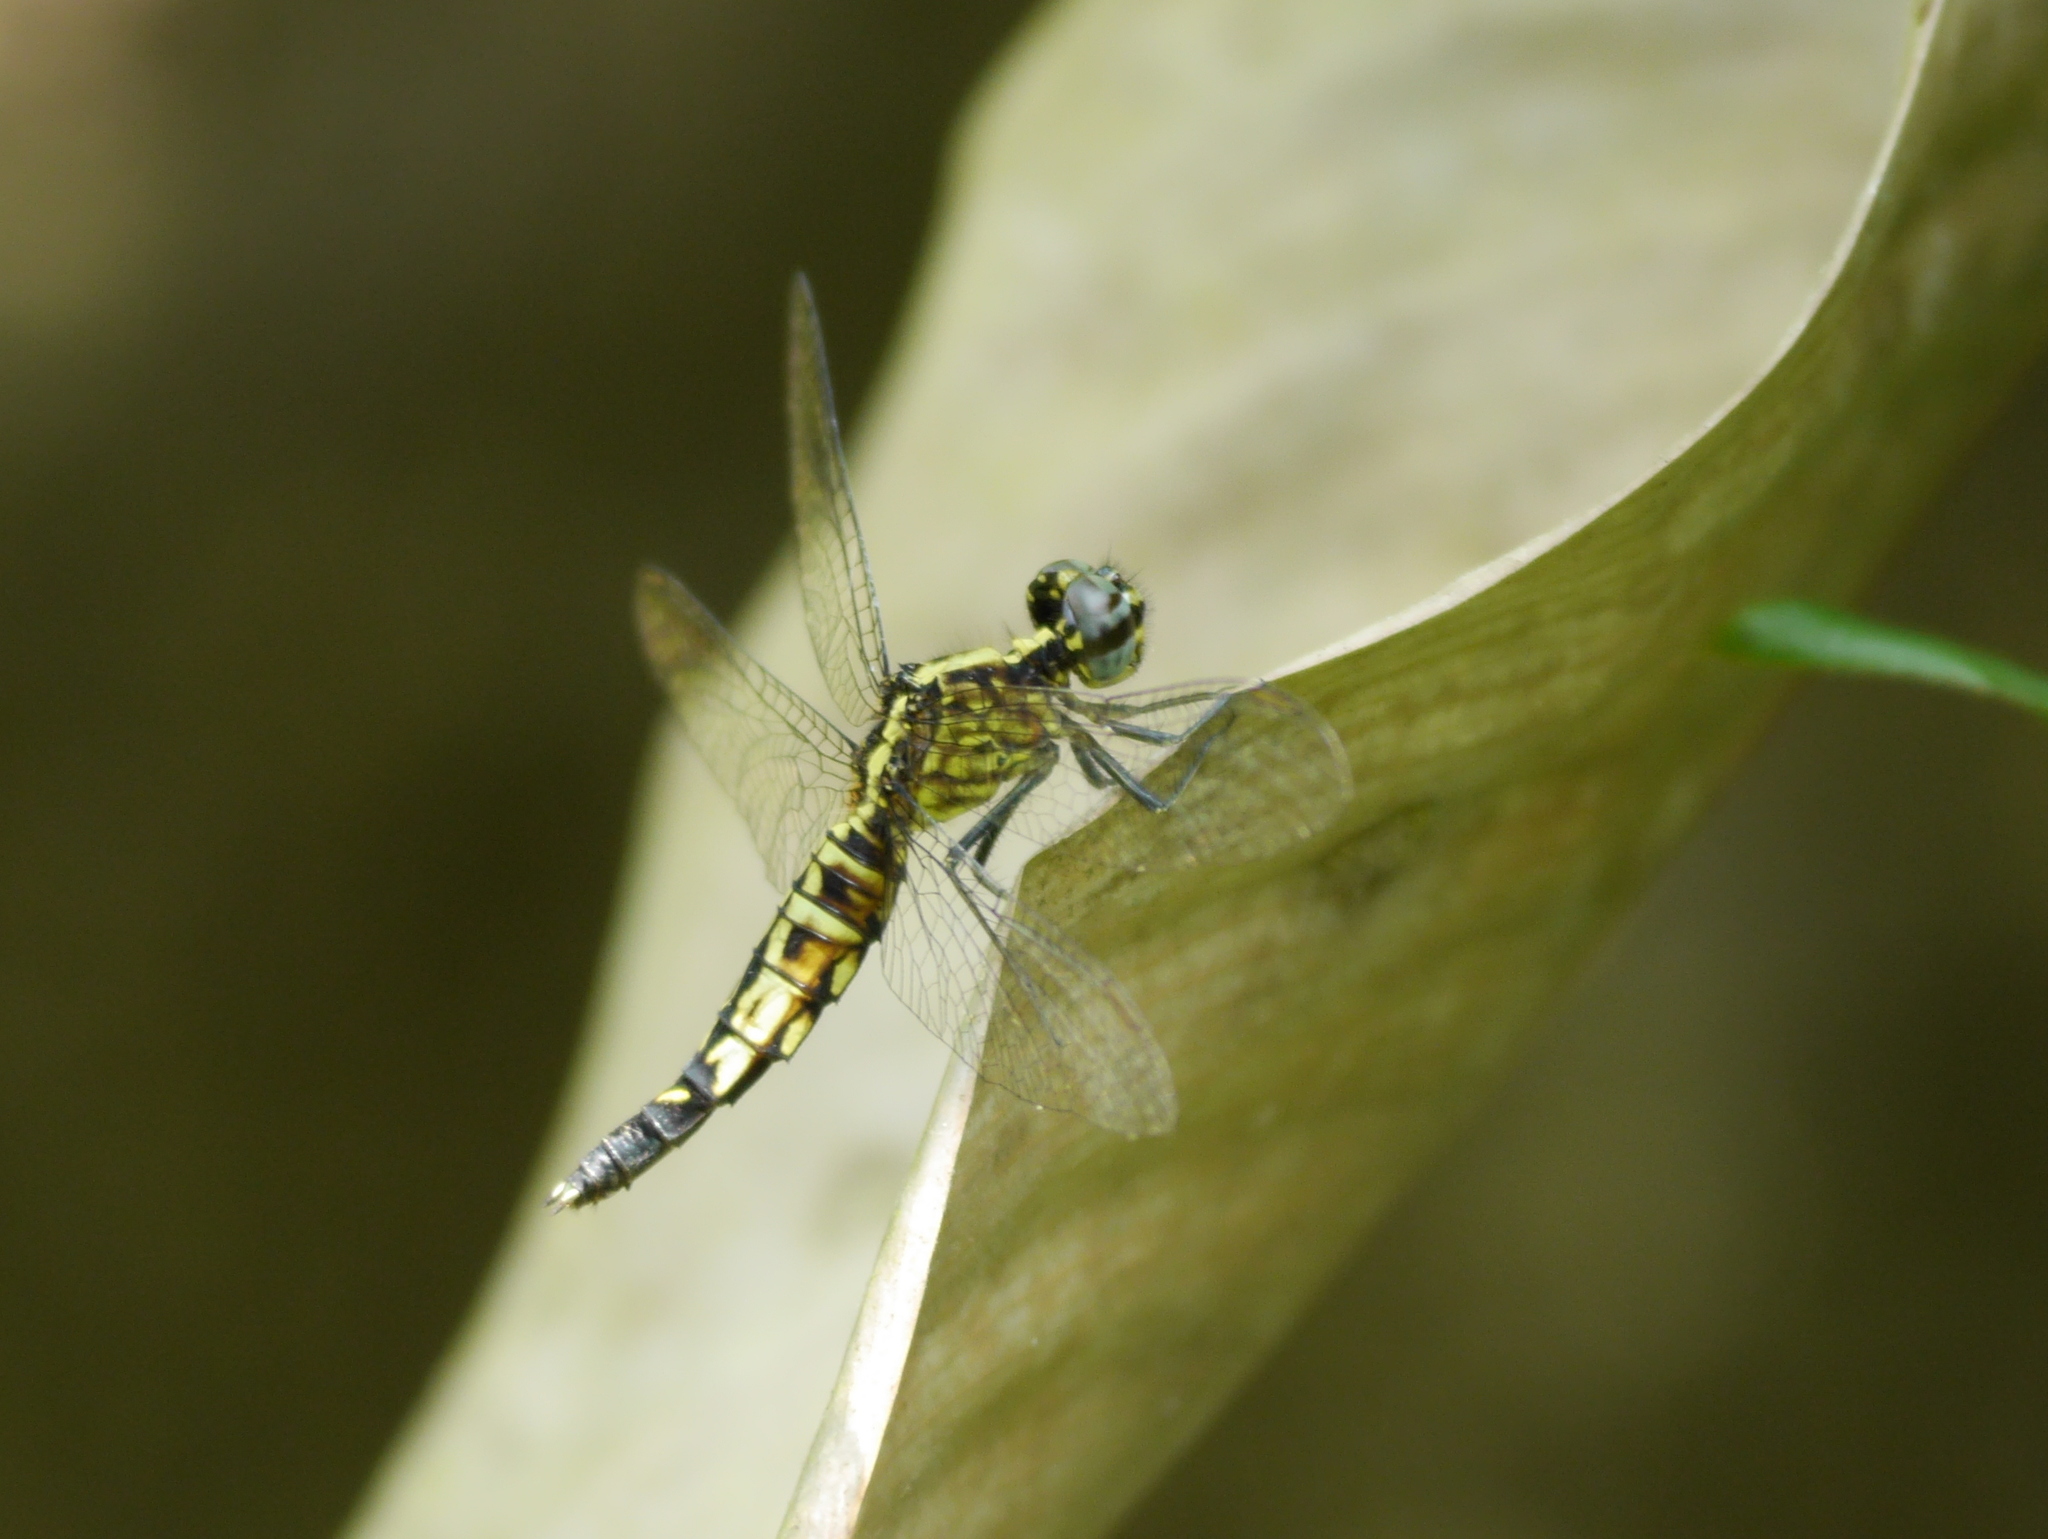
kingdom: Animalia
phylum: Arthropoda
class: Insecta
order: Odonata
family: Libellulidae
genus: Acisoma
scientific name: Acisoma trifidum
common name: Ivory pintail
